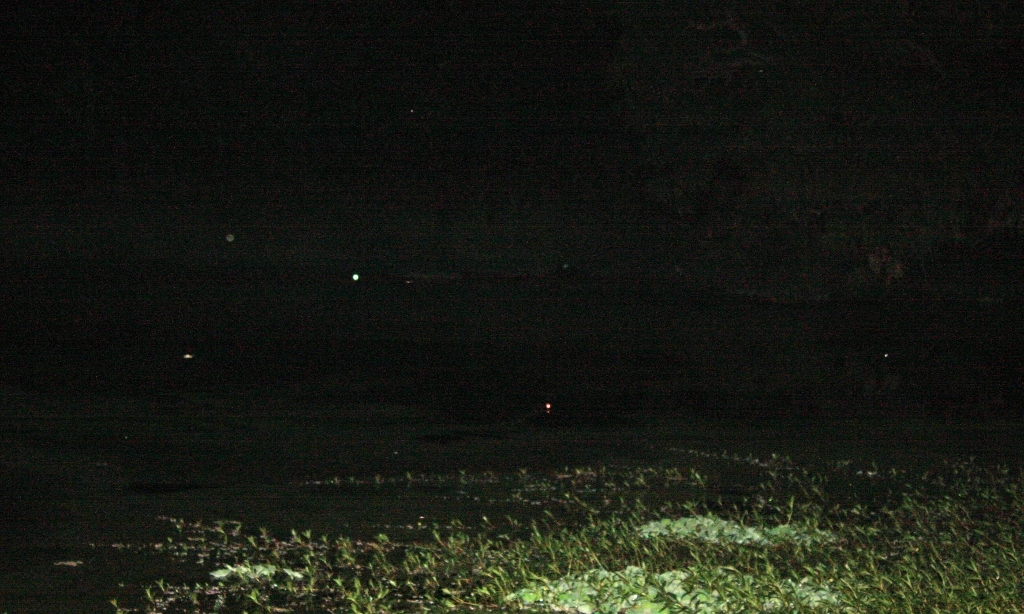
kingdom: Animalia
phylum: Chordata
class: Crocodylia
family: Crocodylidae
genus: Crocodylus
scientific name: Crocodylus suchus
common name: West african crocodile
